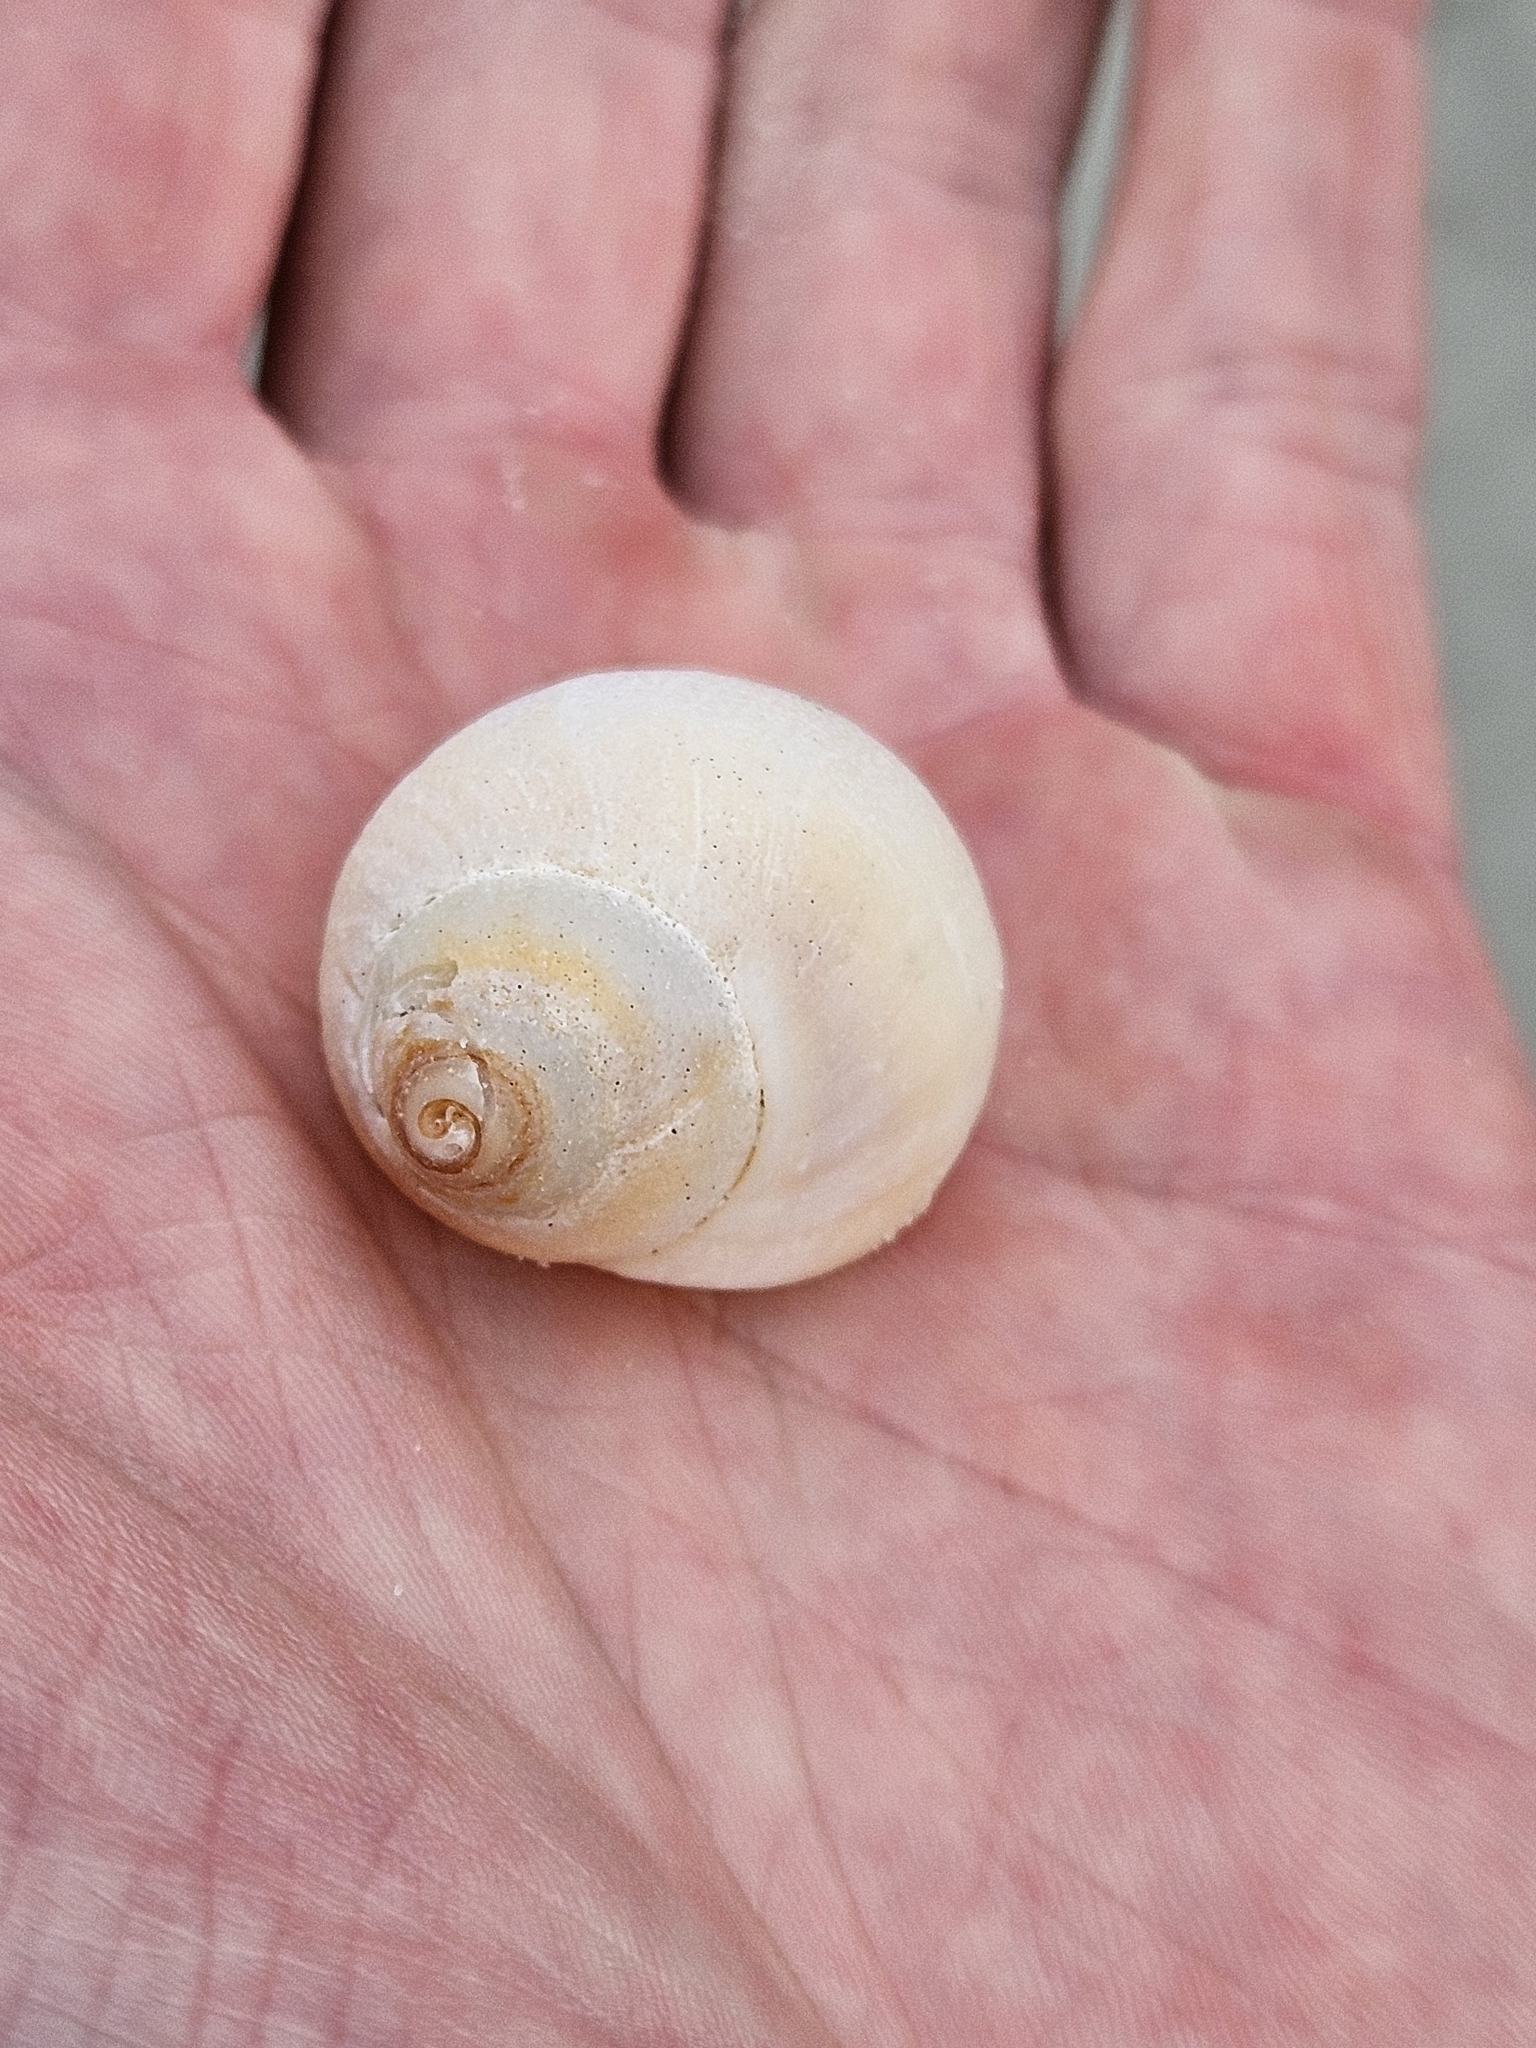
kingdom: Animalia
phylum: Mollusca
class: Gastropoda
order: Neogastropoda
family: Cominellidae
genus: Cominella
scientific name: Cominella adspersa
